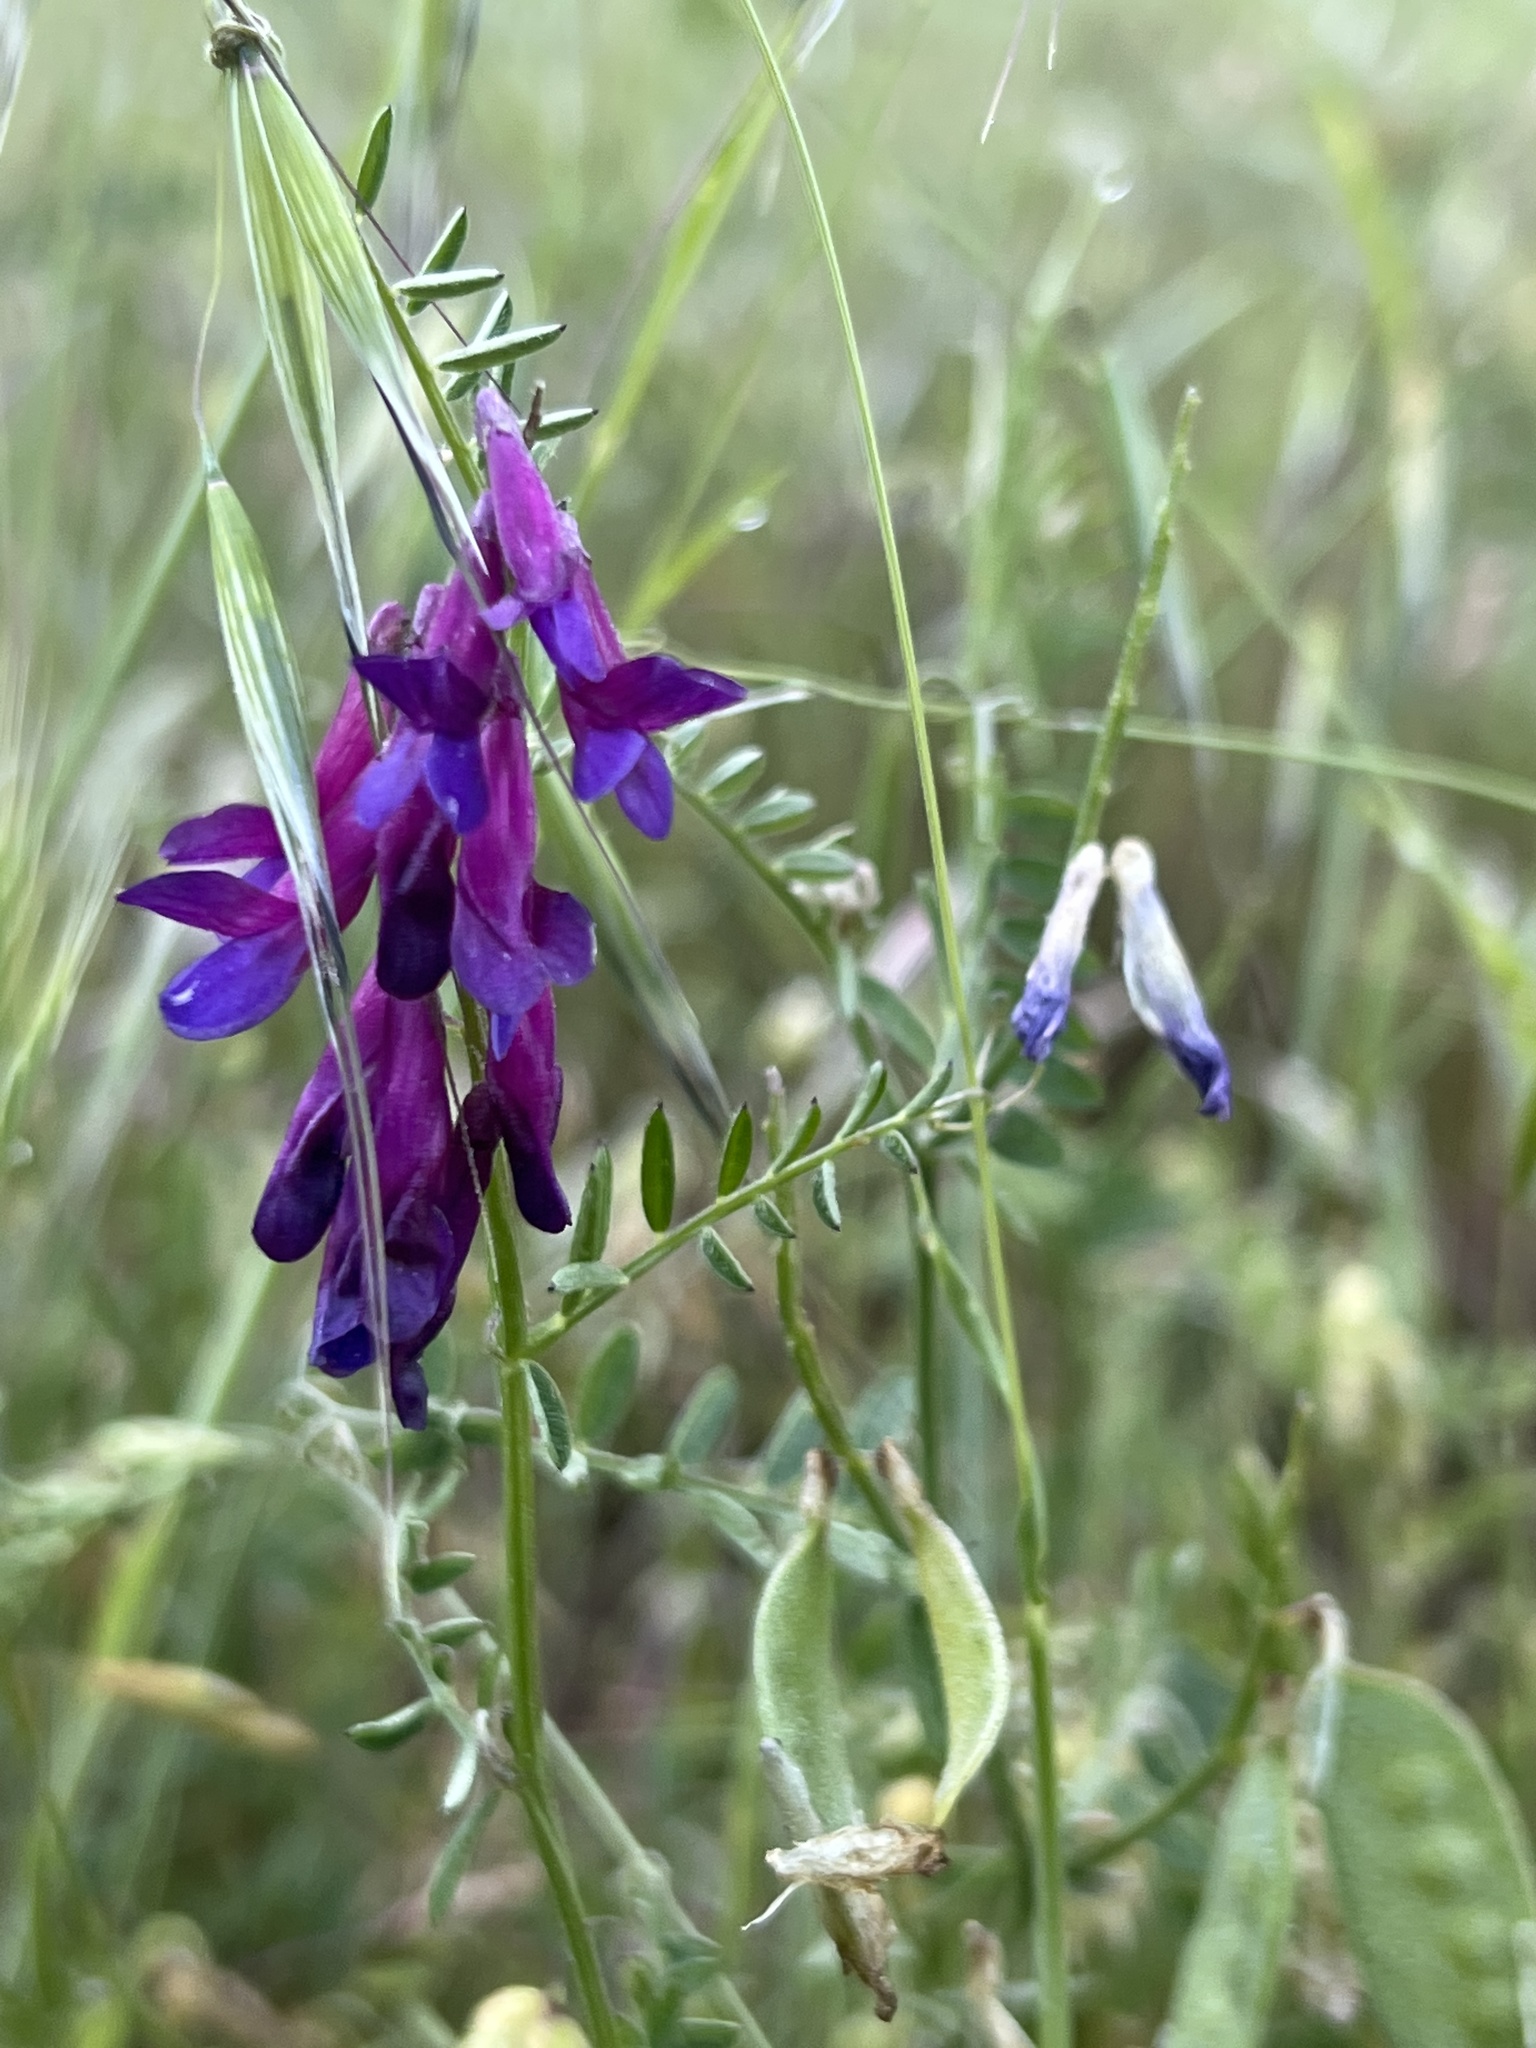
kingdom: Plantae
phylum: Tracheophyta
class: Magnoliopsida
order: Fabales
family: Fabaceae
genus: Vicia
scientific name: Vicia villosa
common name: Fodder vetch
